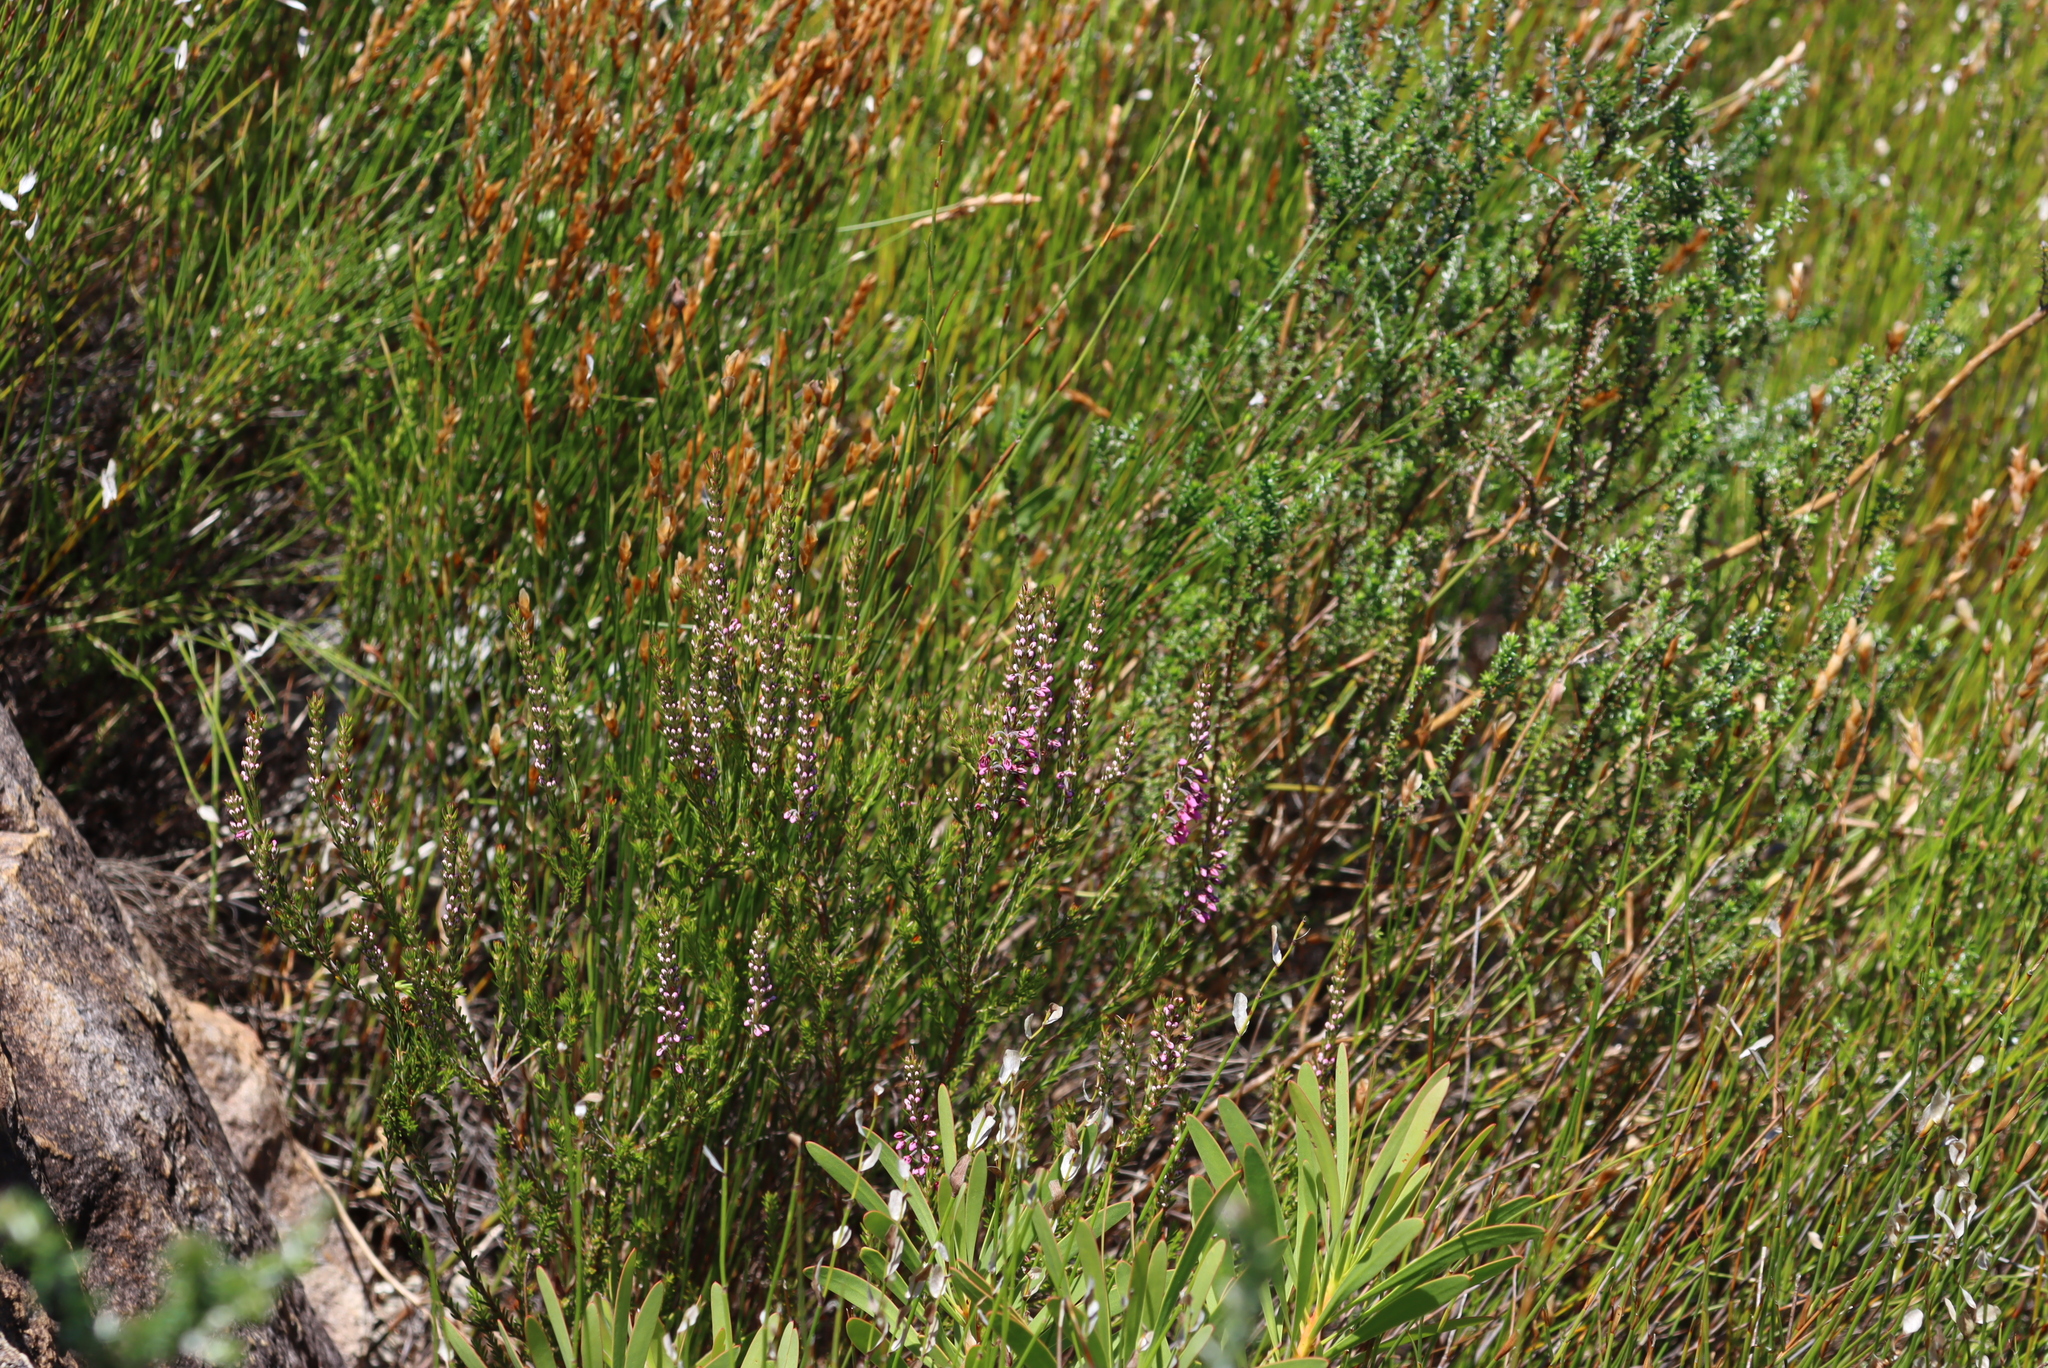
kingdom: Plantae
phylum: Tracheophyta
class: Magnoliopsida
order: Ericales
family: Ericaceae
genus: Erica
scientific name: Erica pulchella
